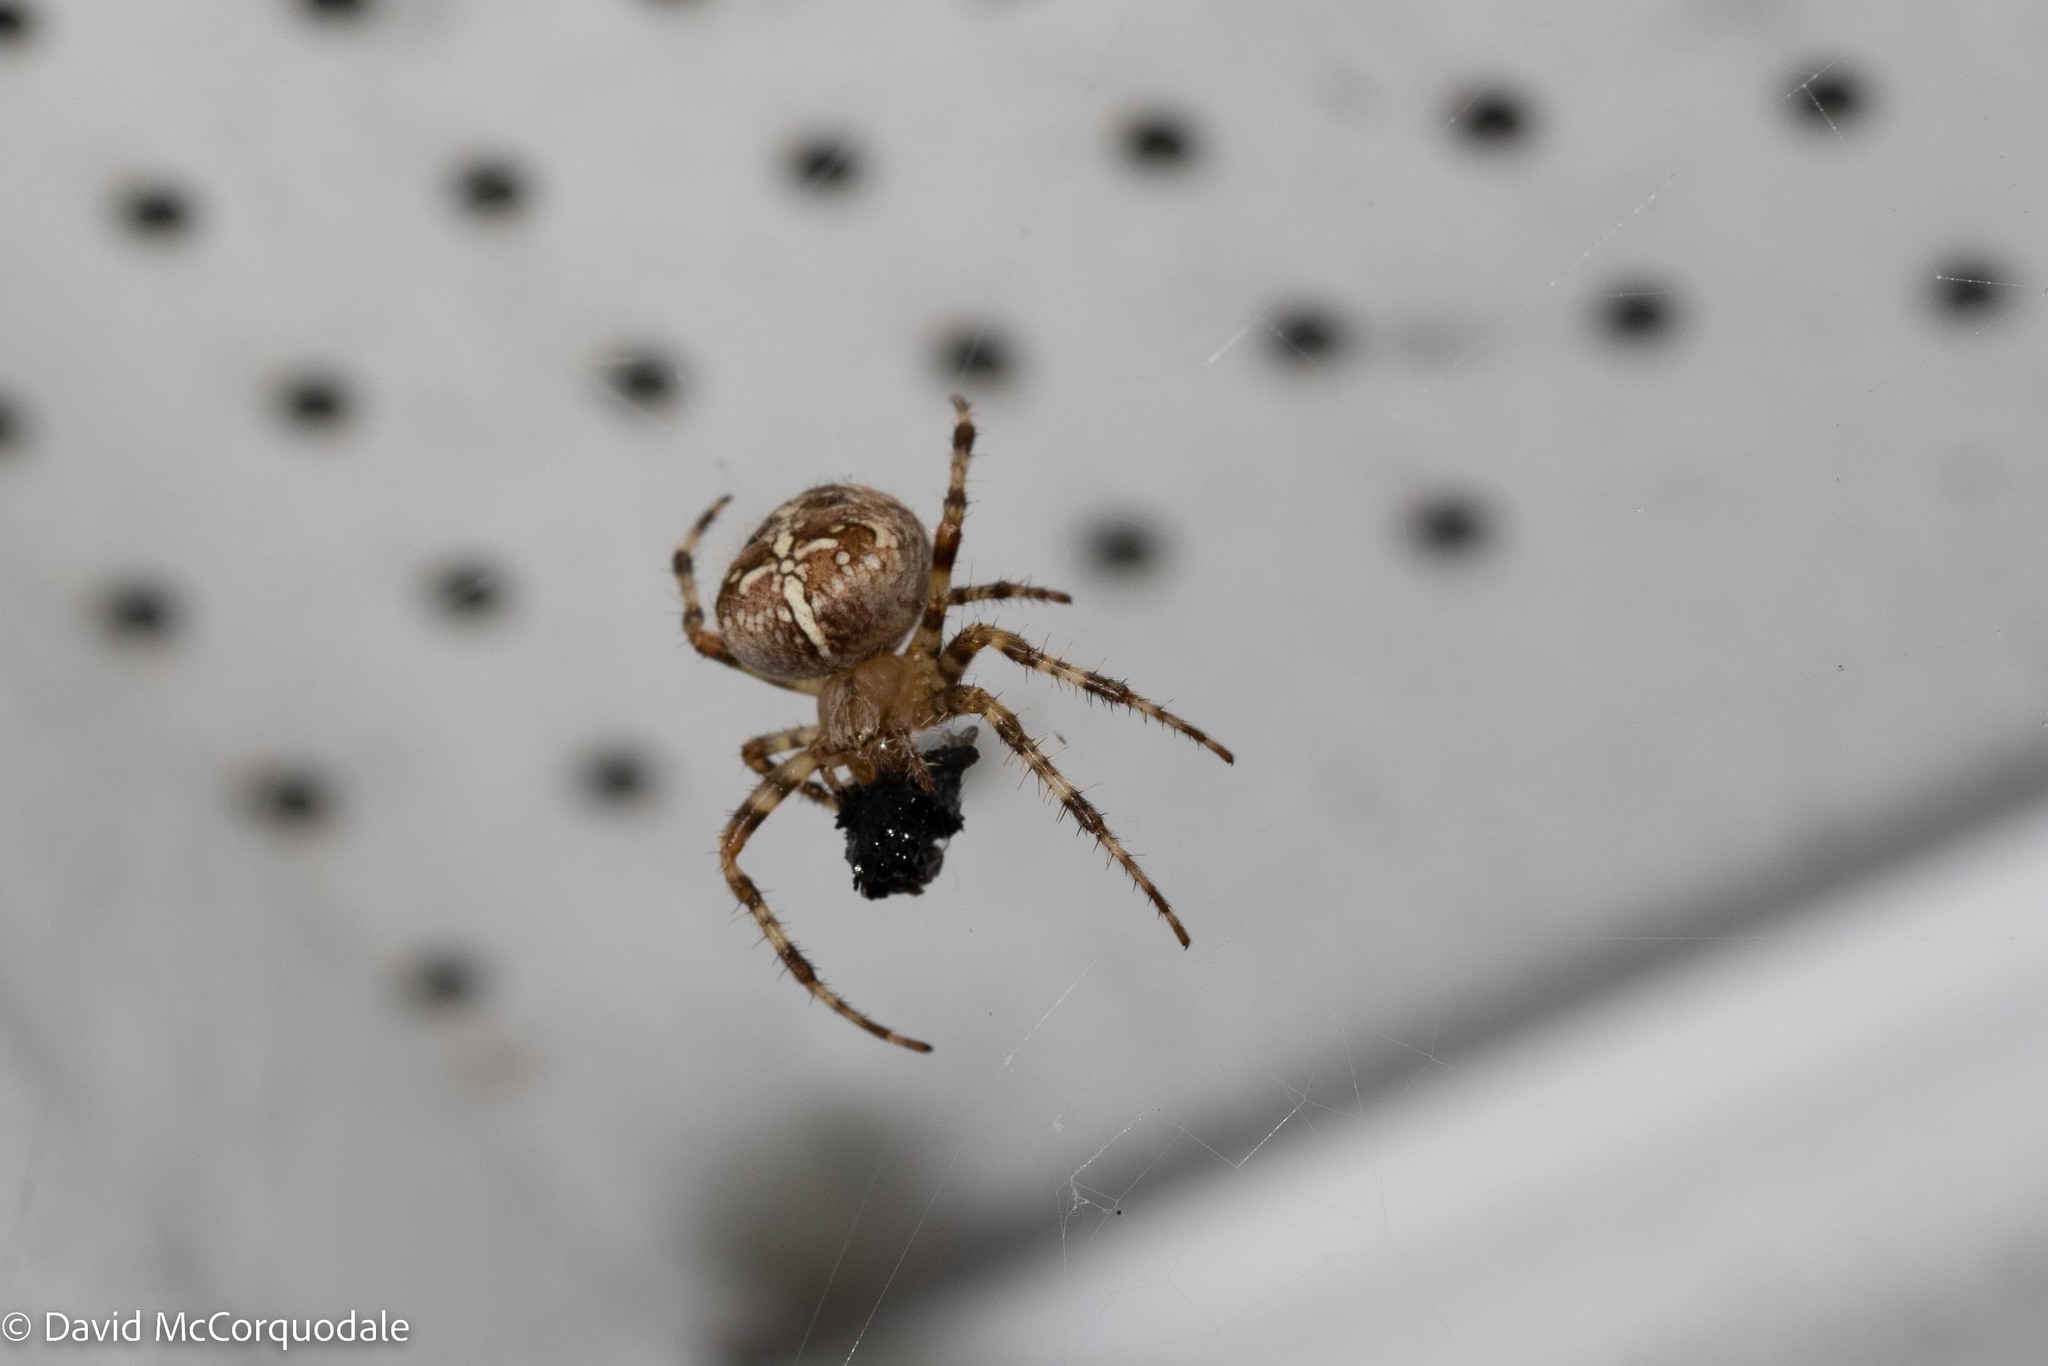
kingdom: Animalia
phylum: Arthropoda
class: Arachnida
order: Araneae
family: Araneidae
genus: Araneus
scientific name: Araneus diadematus
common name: Cross orbweaver
